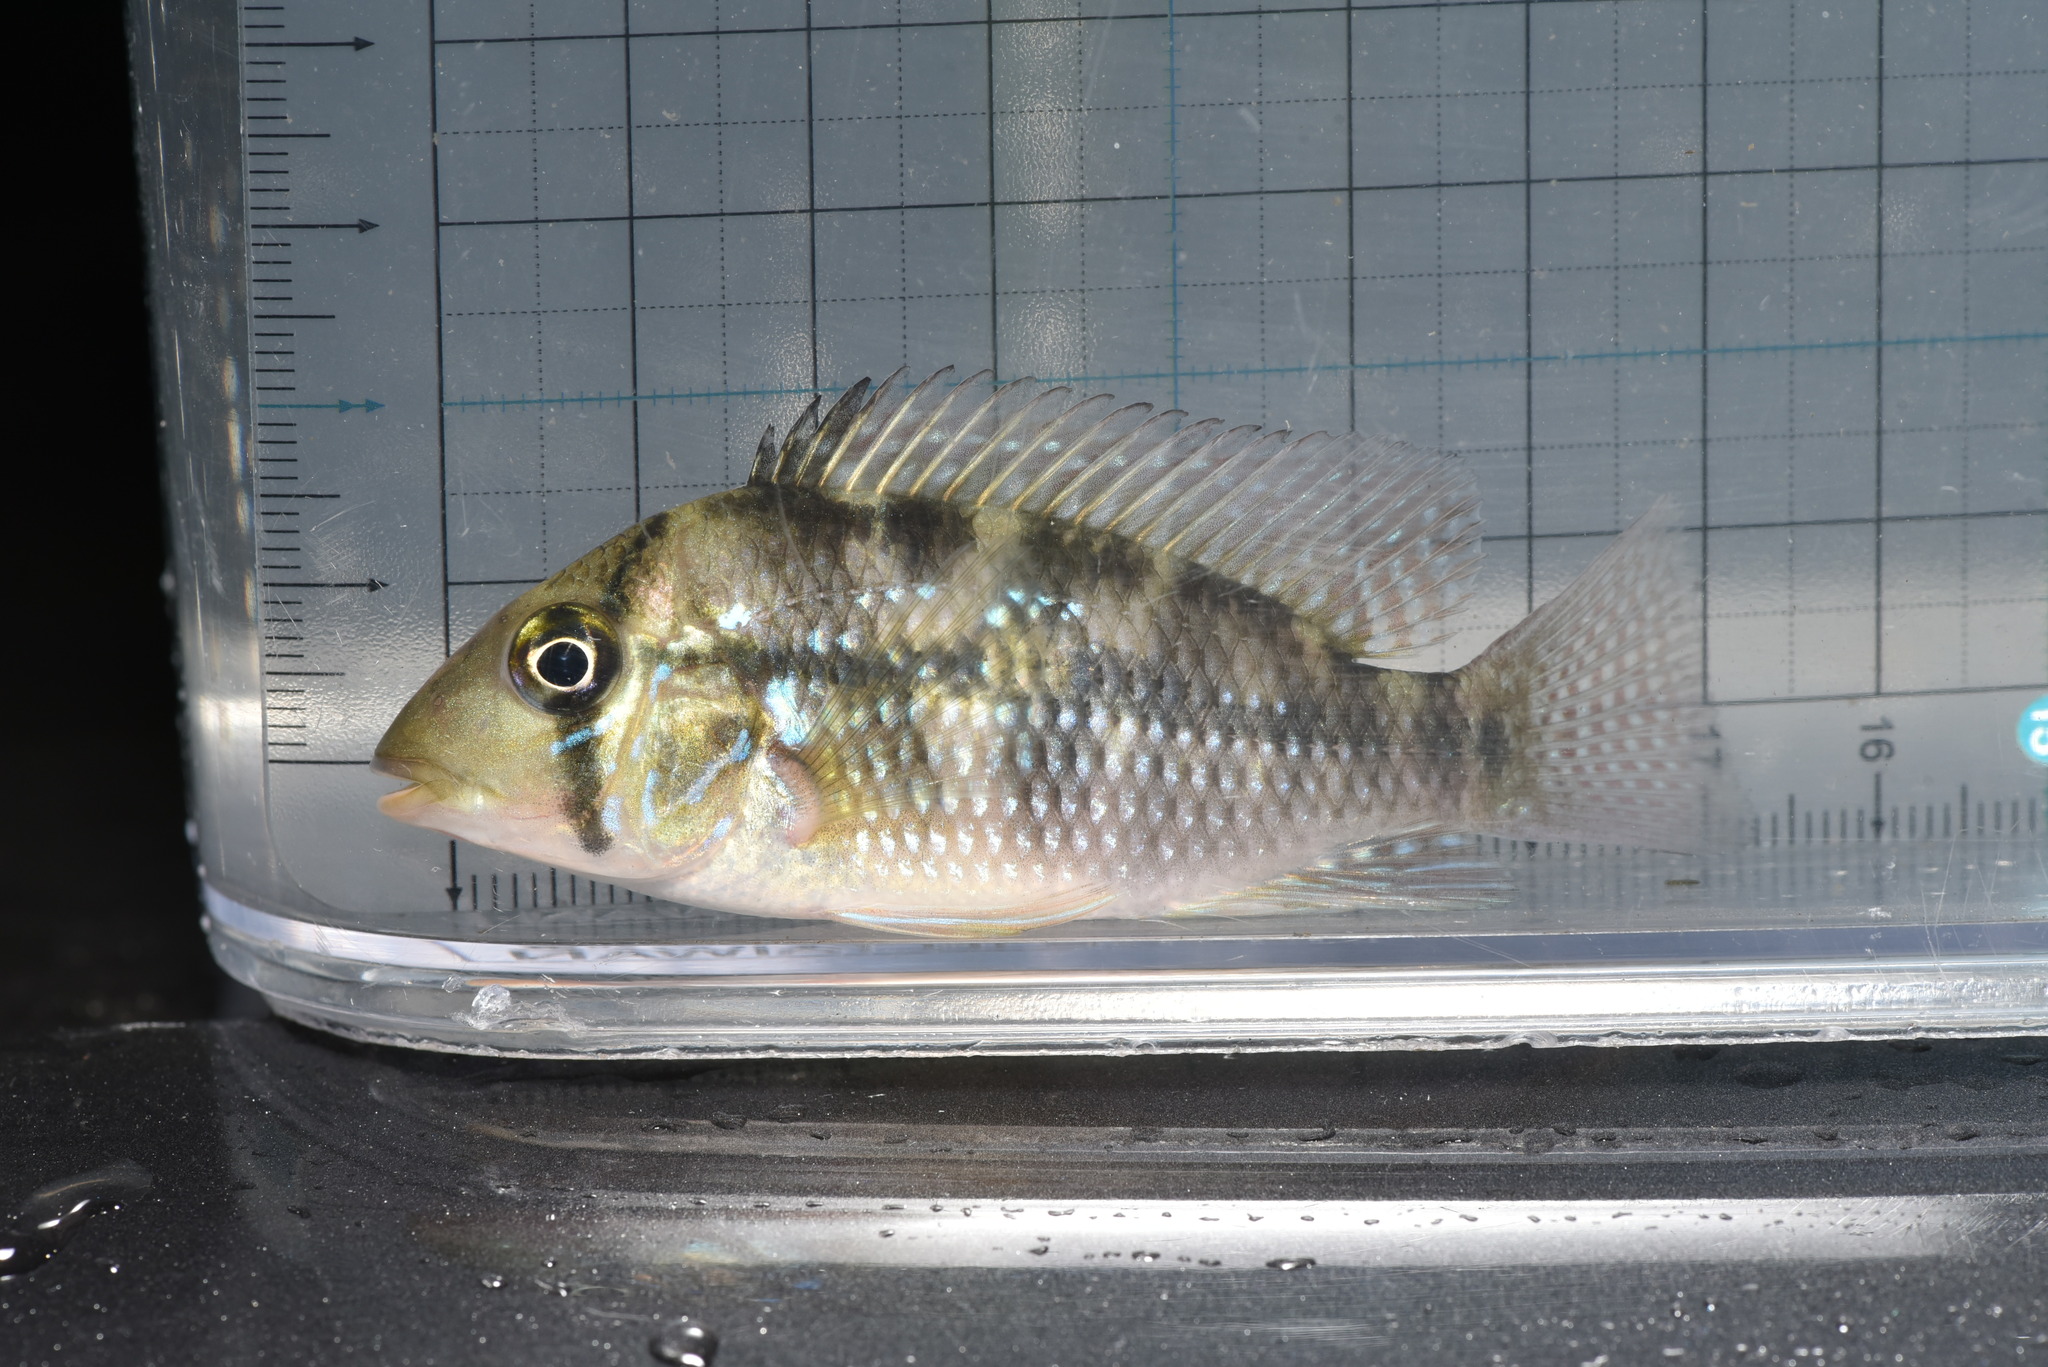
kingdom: Animalia
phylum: Chordata
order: Perciformes
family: Cichlidae
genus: Geophagus
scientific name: Geophagus brasiliensis
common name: Braziliensis
